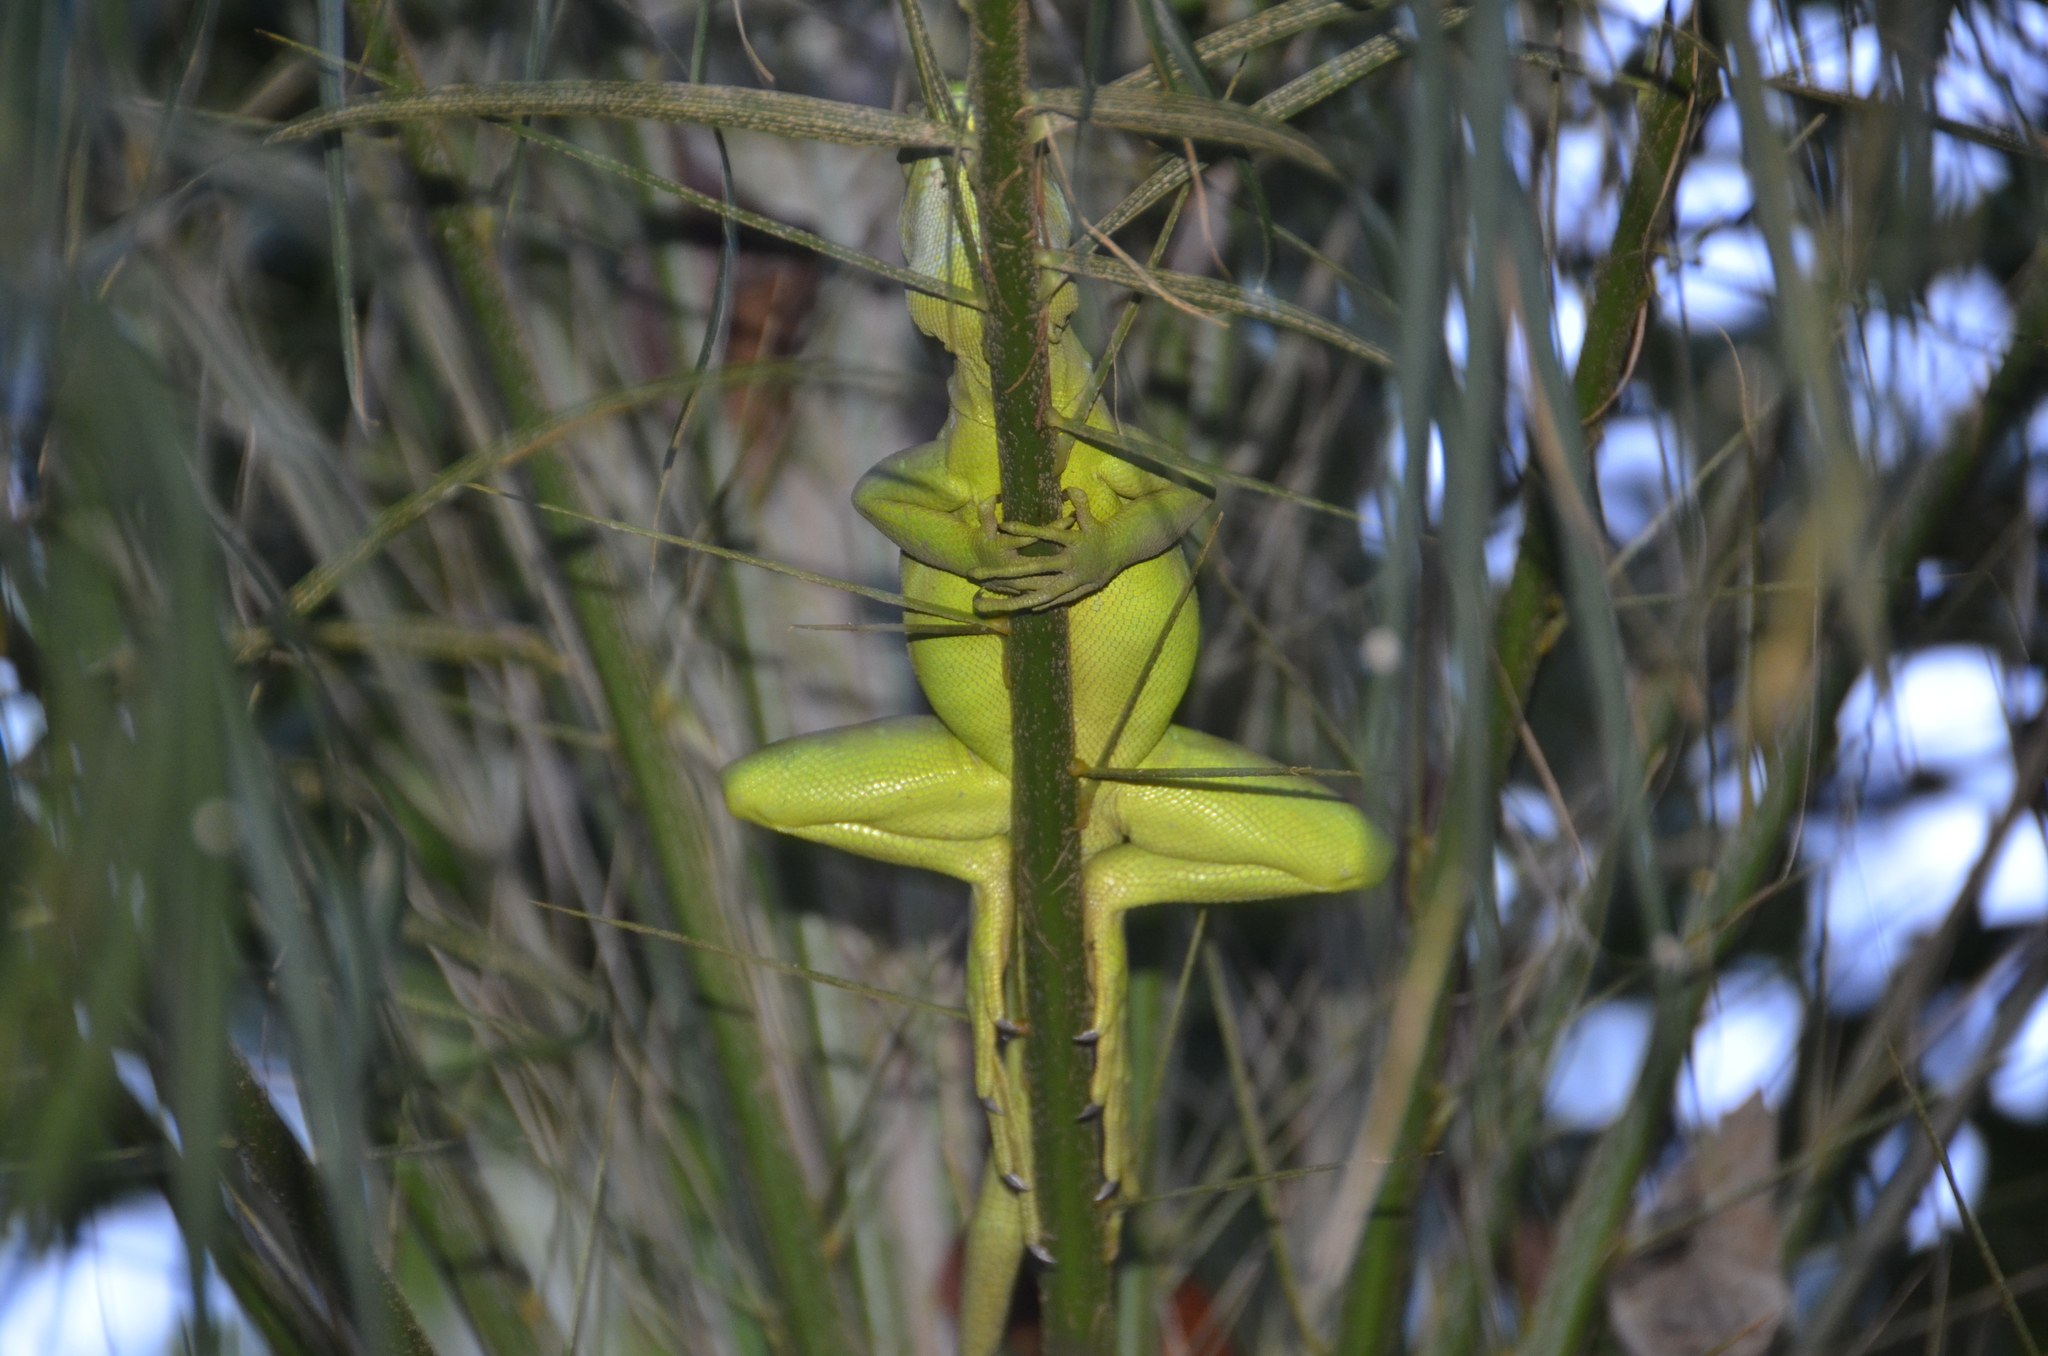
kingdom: Animalia
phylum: Chordata
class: Squamata
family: Corytophanidae
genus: Basiliscus
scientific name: Basiliscus plumifrons
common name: Green basilisk
